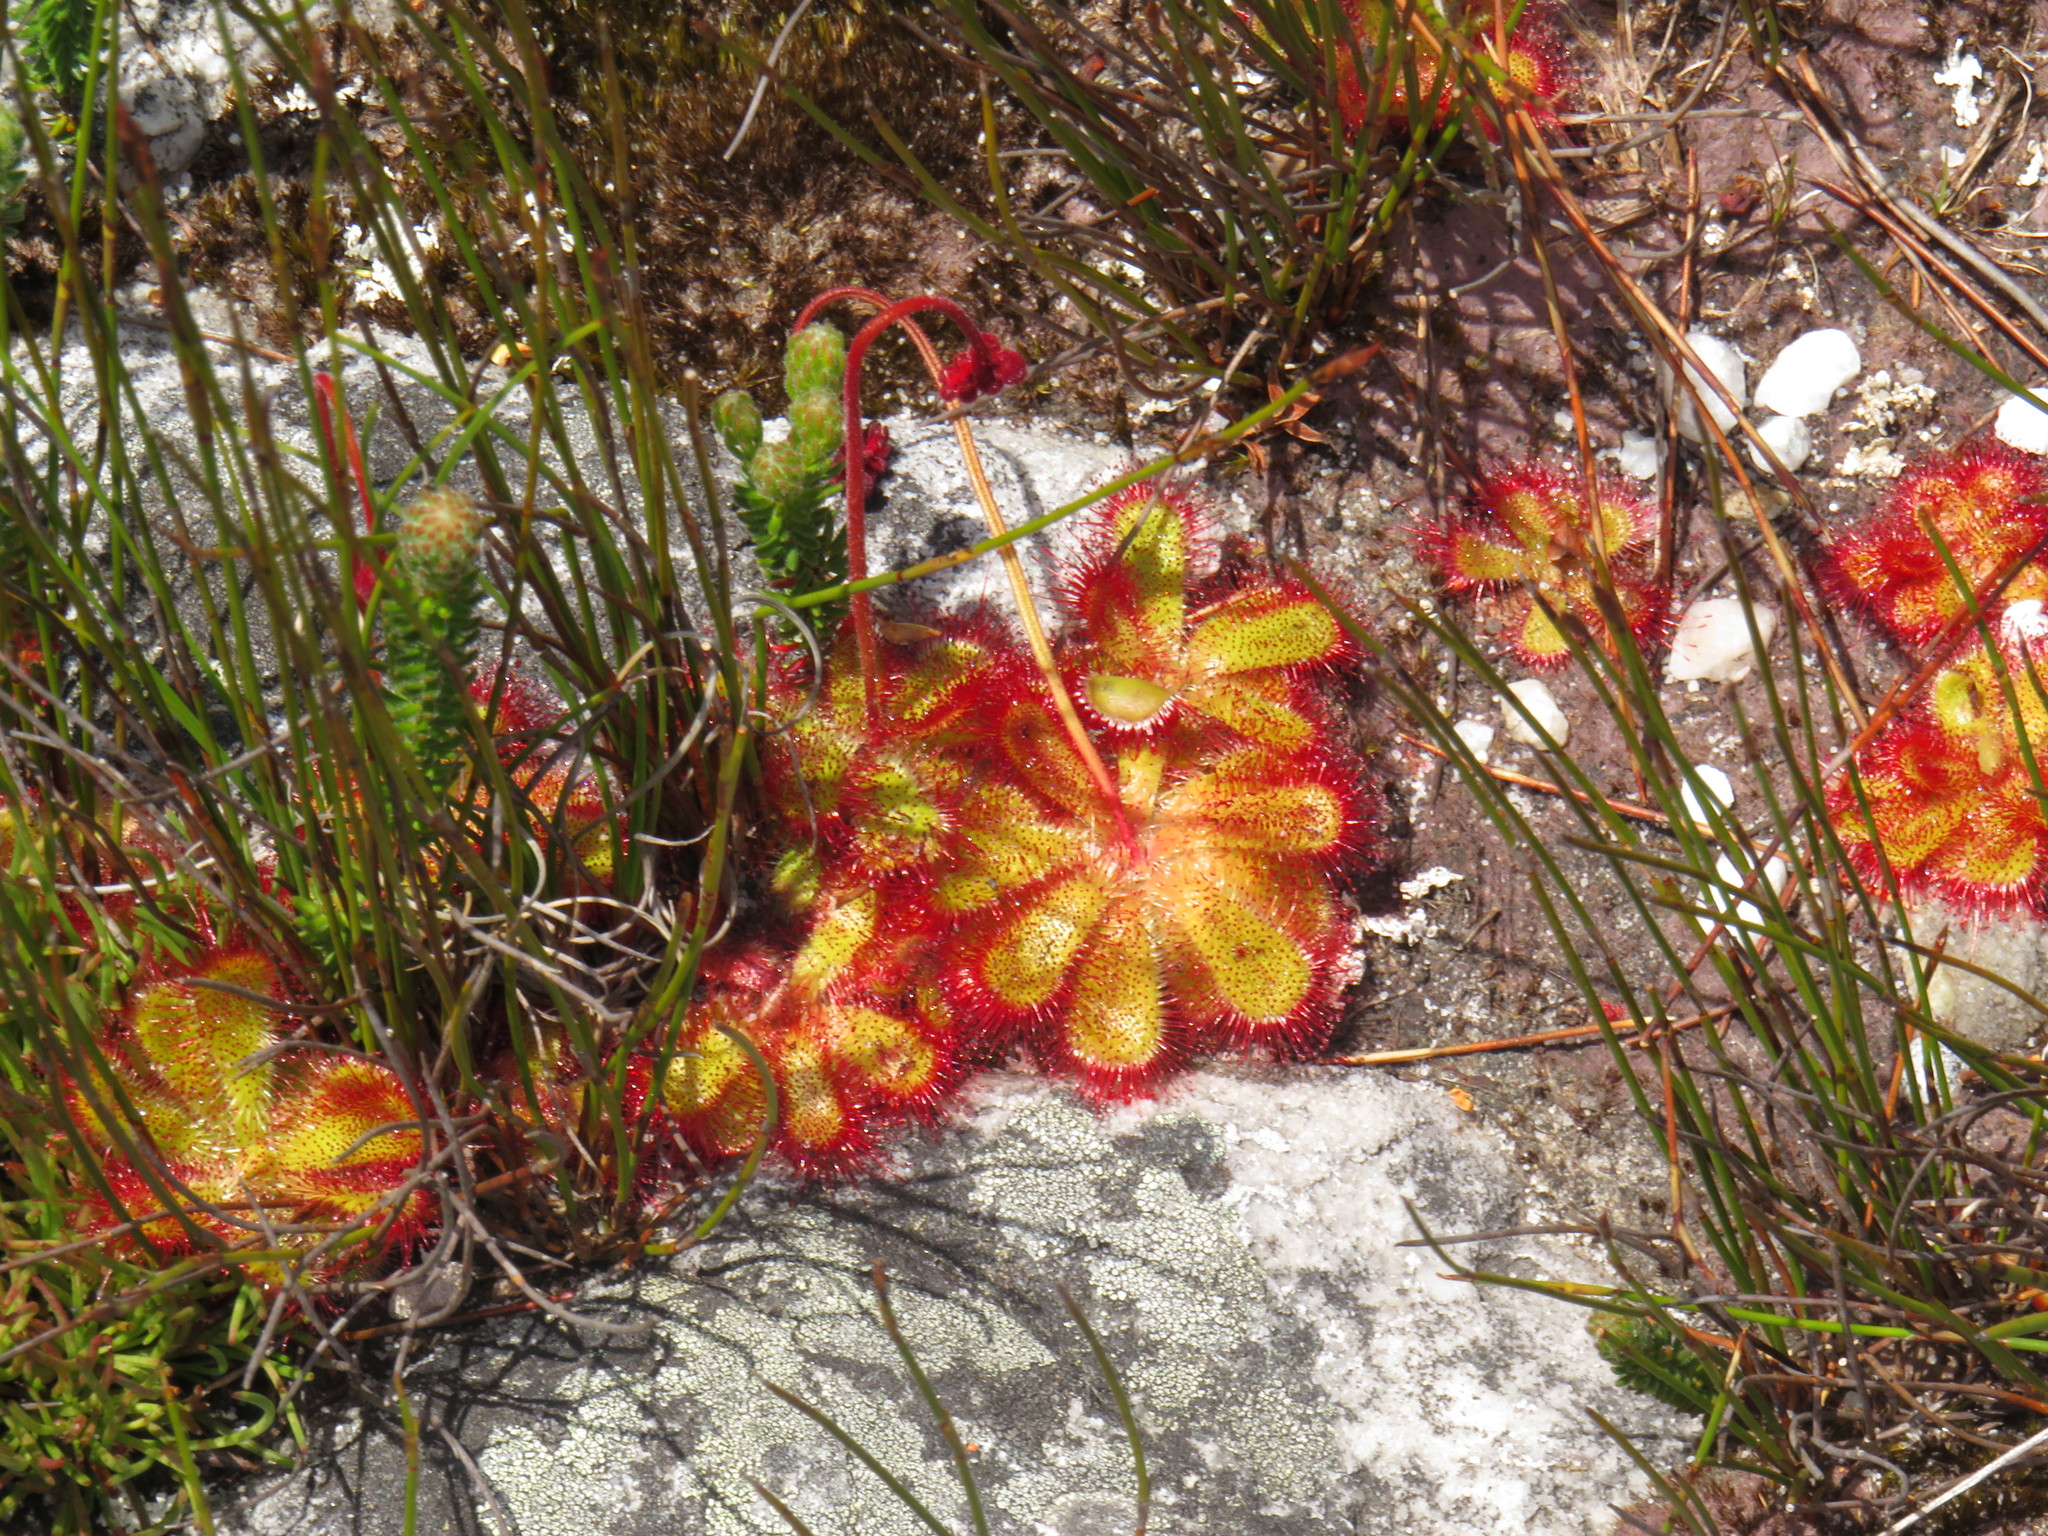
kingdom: Plantae
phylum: Tracheophyta
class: Magnoliopsida
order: Caryophyllales
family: Droseraceae
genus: Drosera
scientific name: Drosera cuneifolia
